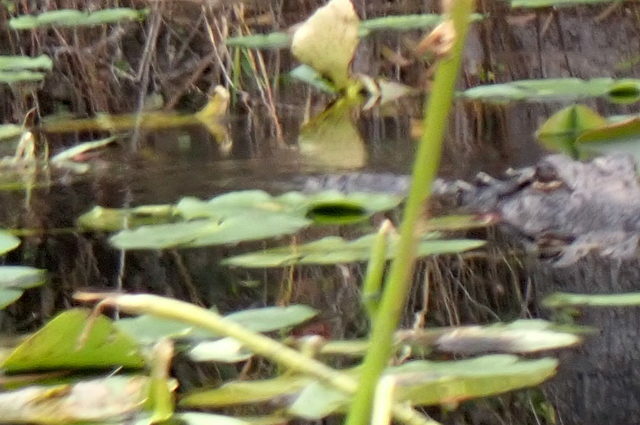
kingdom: Animalia
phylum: Chordata
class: Crocodylia
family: Alligatoridae
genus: Alligator
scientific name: Alligator mississippiensis
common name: American alligator
